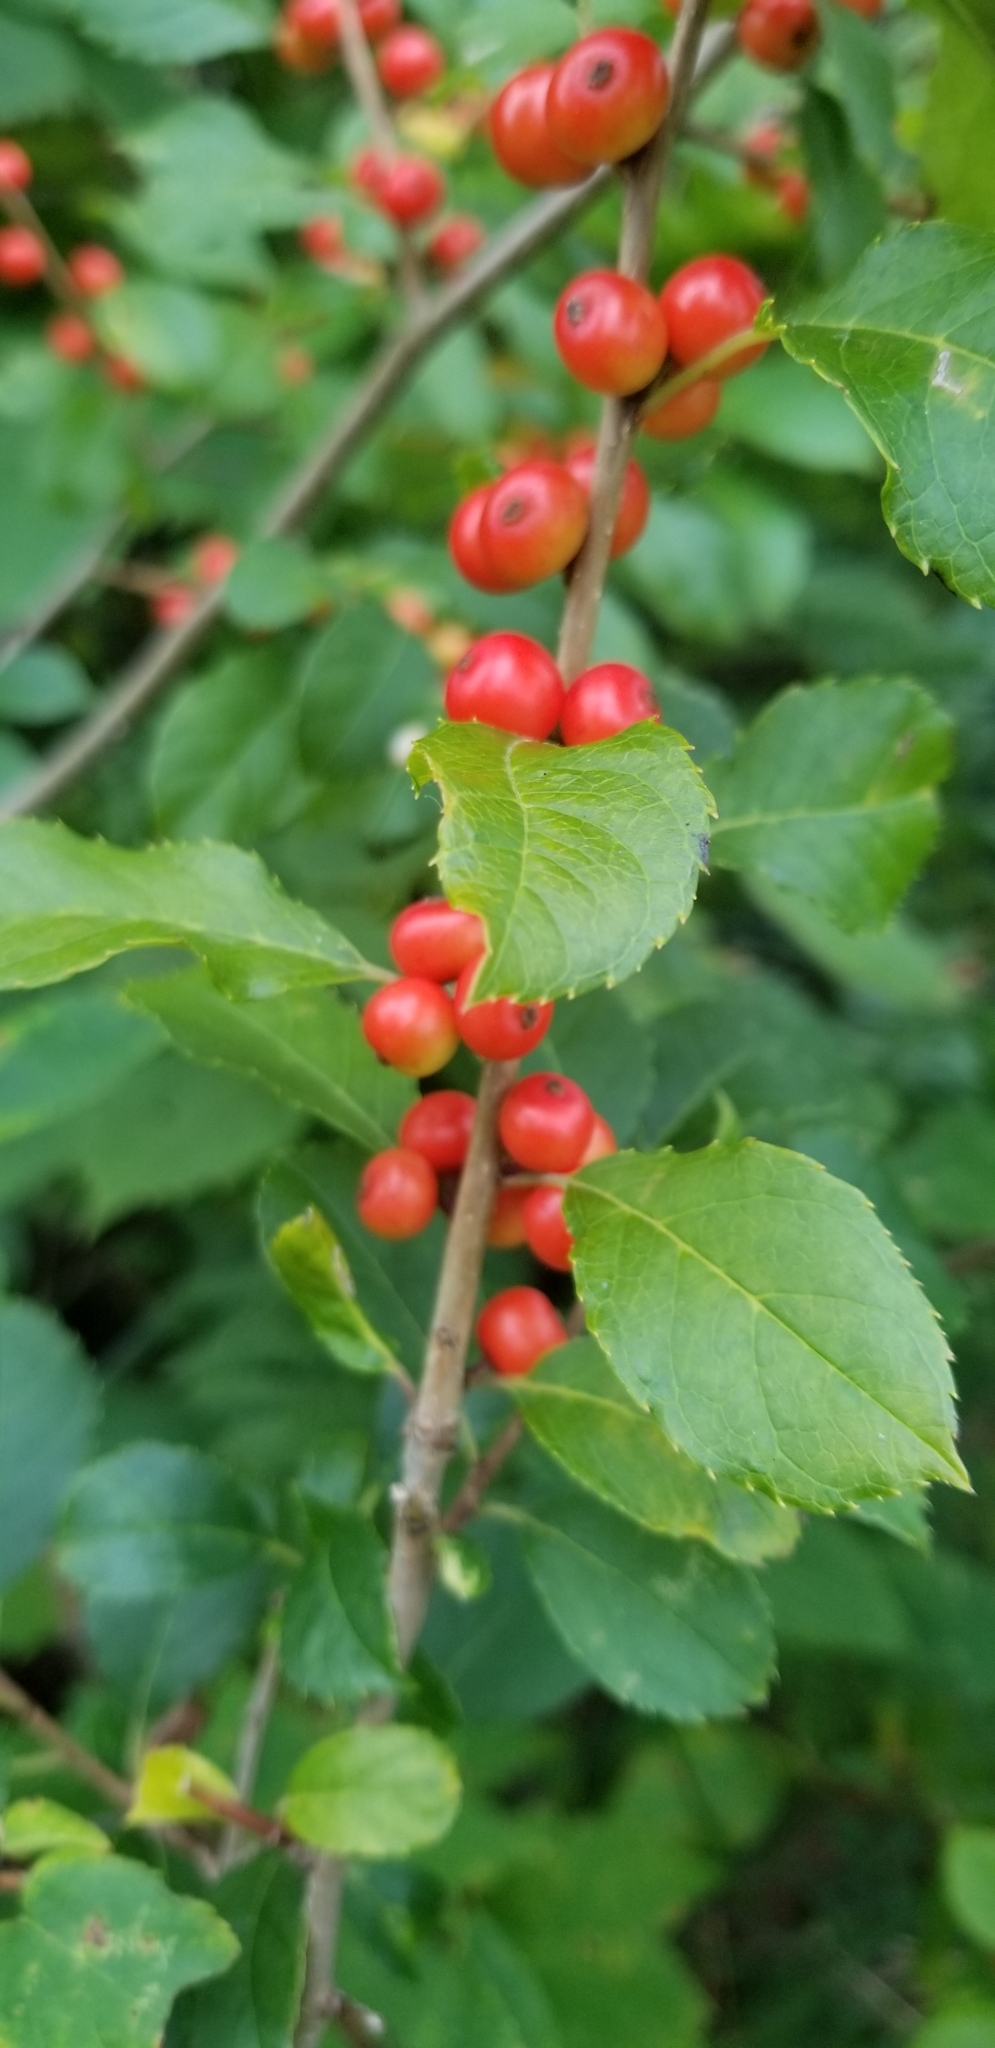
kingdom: Plantae
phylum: Tracheophyta
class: Magnoliopsida
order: Aquifoliales
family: Aquifoliaceae
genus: Ilex
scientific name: Ilex verticillata
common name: Virginia winterberry
